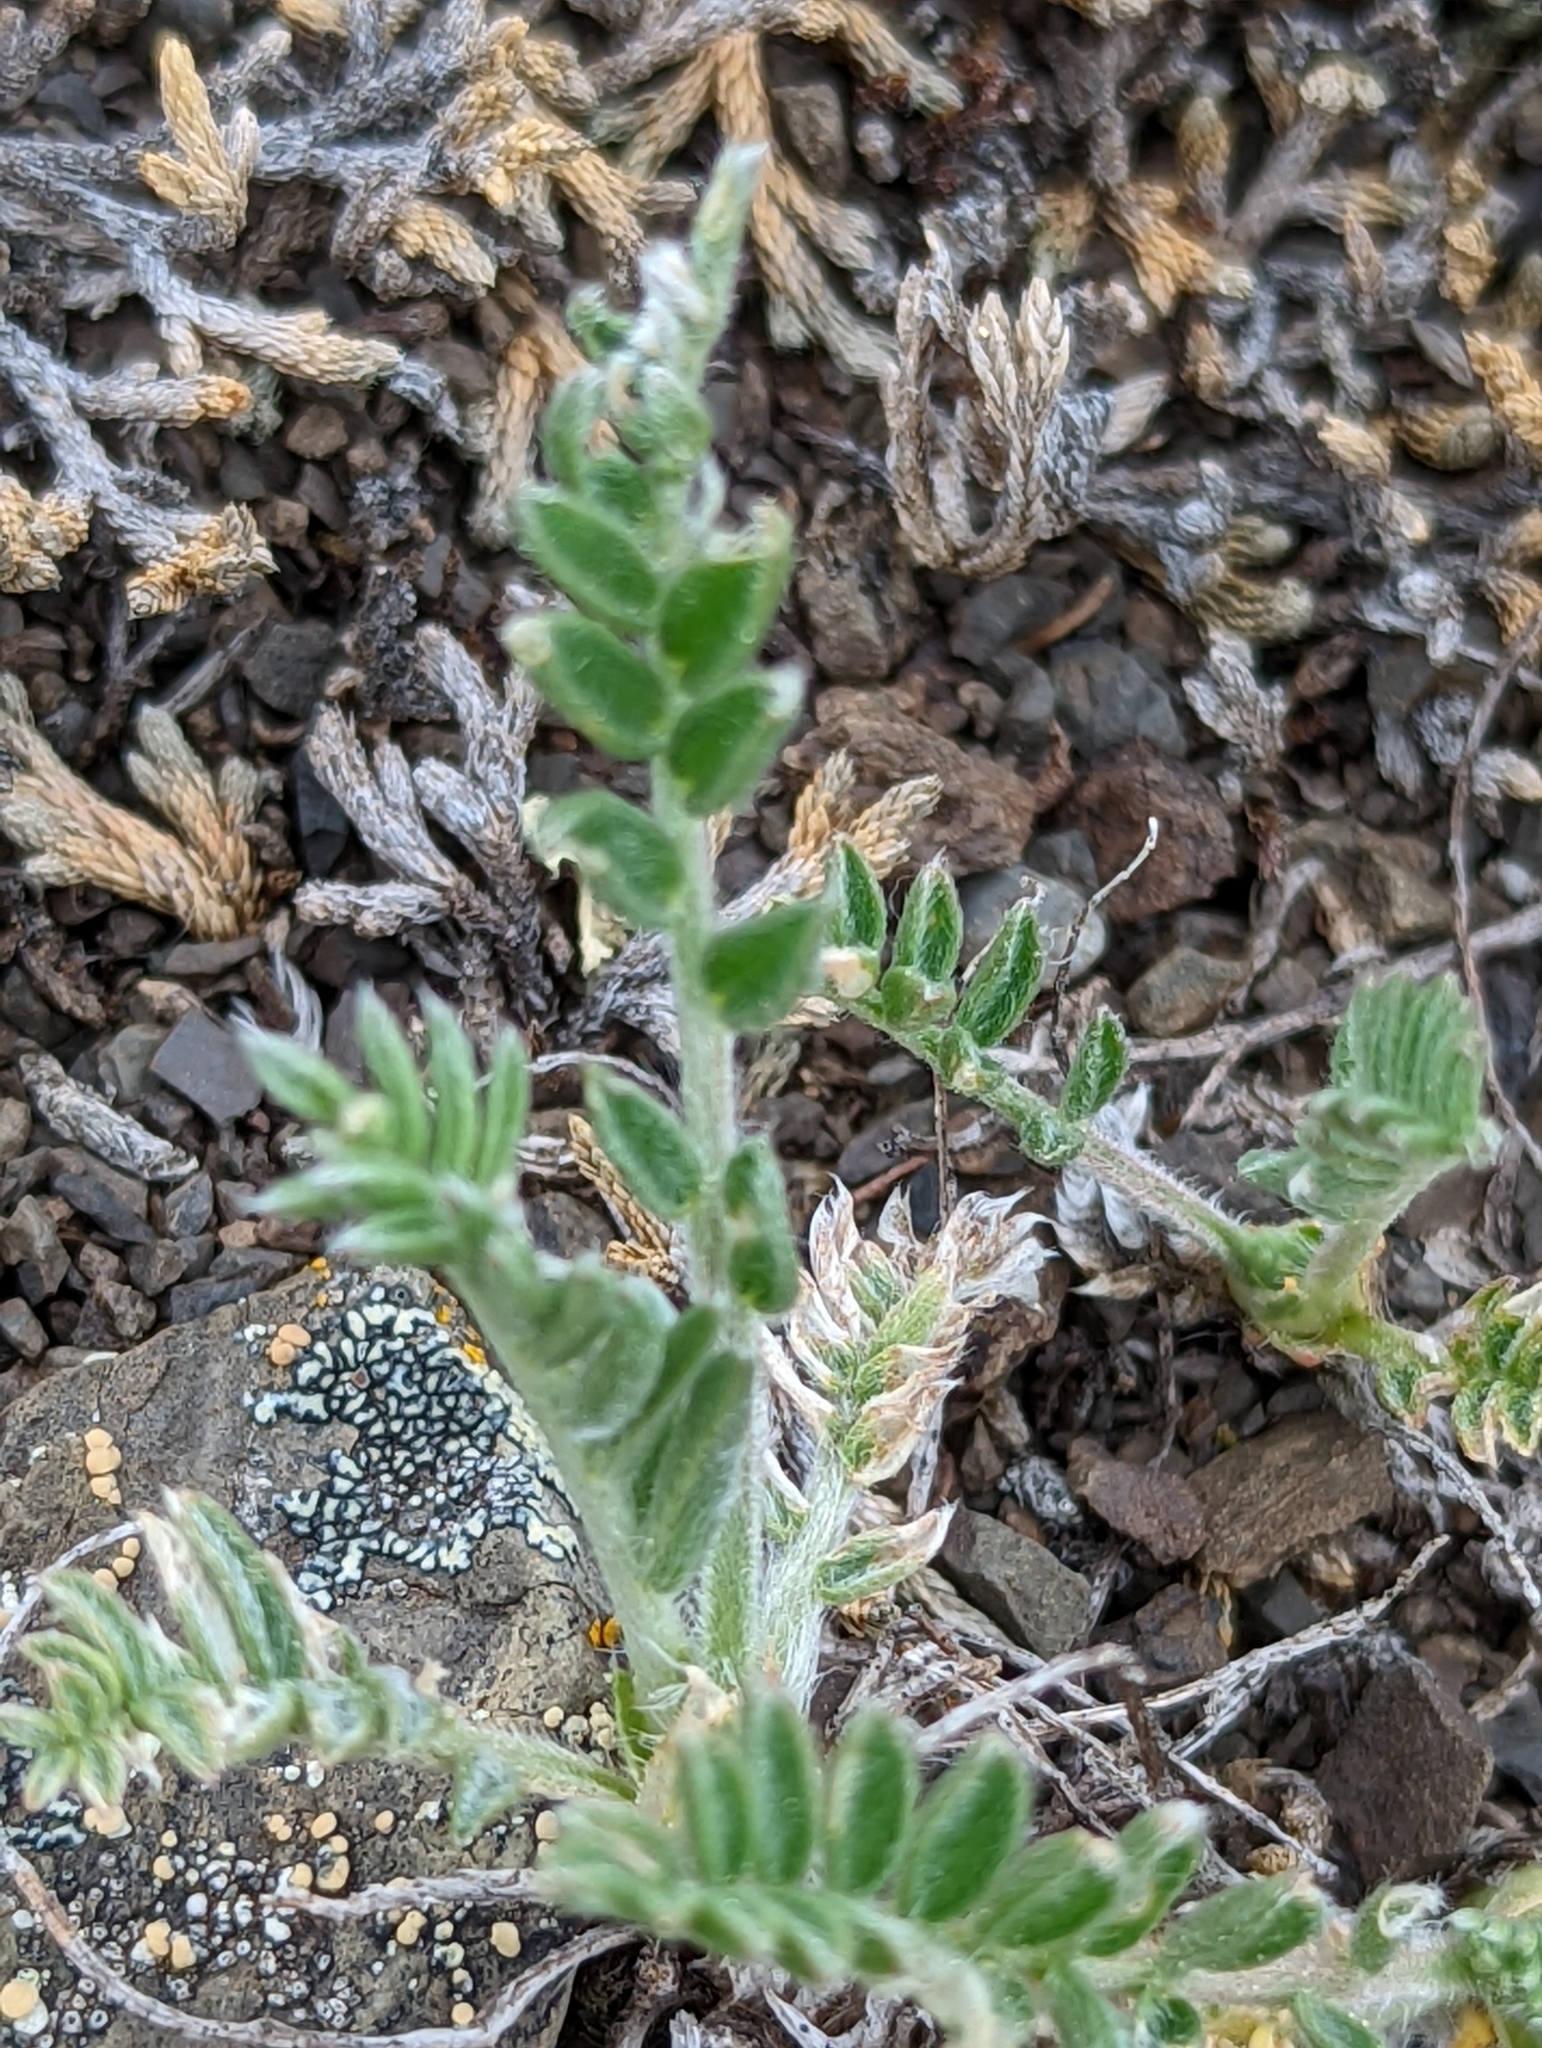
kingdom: Plantae
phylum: Tracheophyta
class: Magnoliopsida
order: Fabales
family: Fabaceae
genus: Oxytropis
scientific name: Oxytropis campestris
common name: Field locoweed
